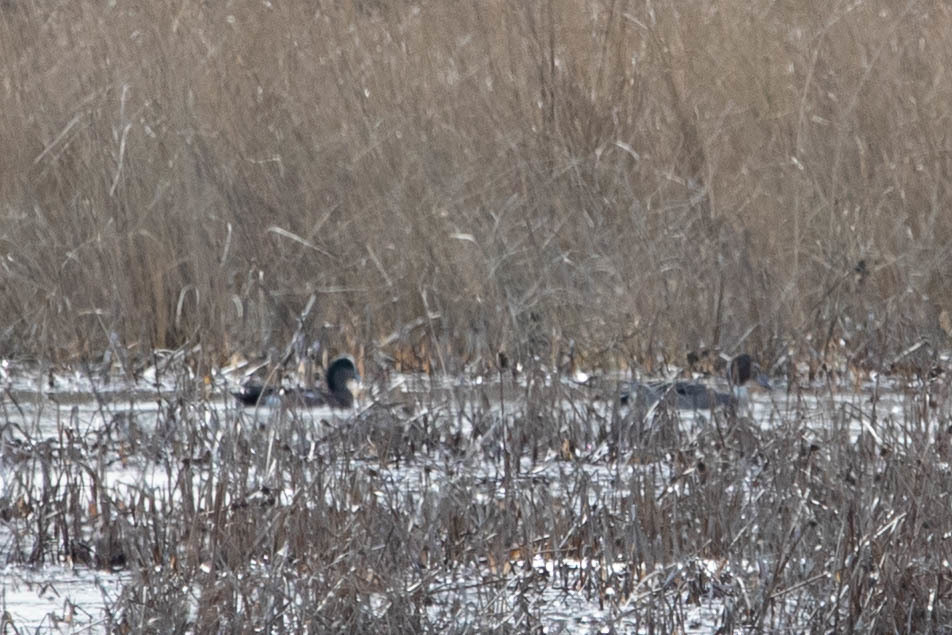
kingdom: Animalia
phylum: Chordata
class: Aves
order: Anseriformes
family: Anatidae
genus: Mareca
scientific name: Mareca americana
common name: American wigeon
